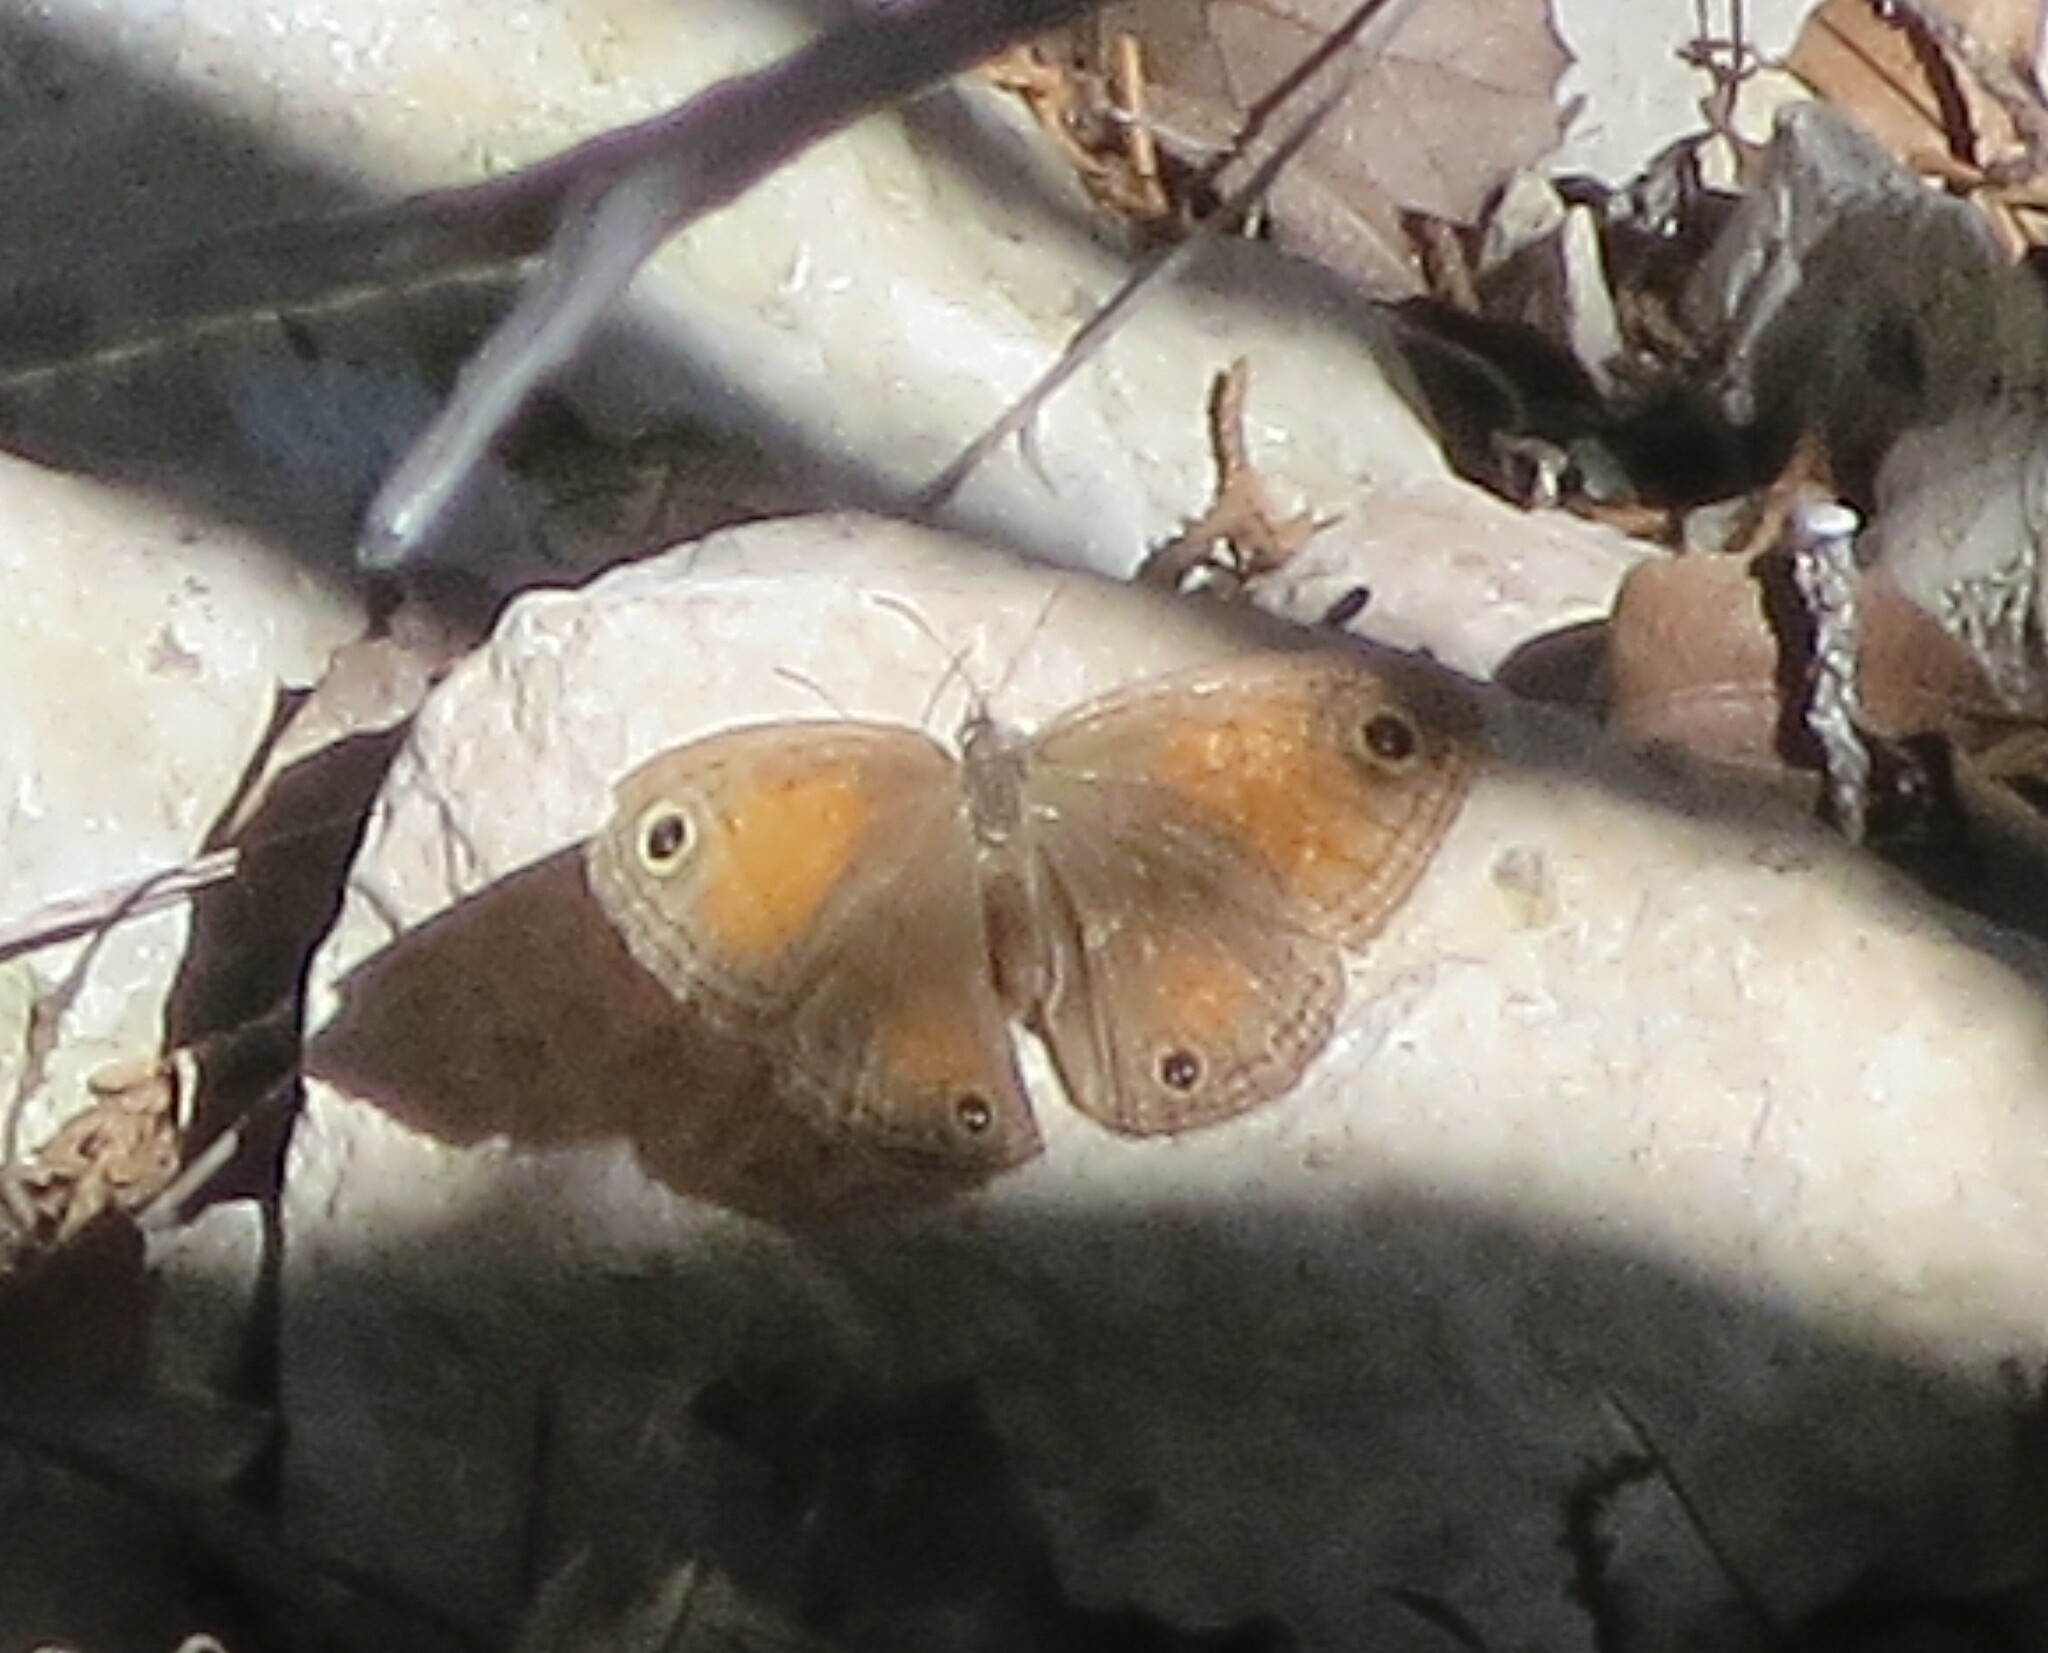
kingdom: Animalia
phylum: Arthropoda
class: Insecta
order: Lepidoptera
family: Nymphalidae
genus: Euptychia
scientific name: Euptychia Cissia rubricata
